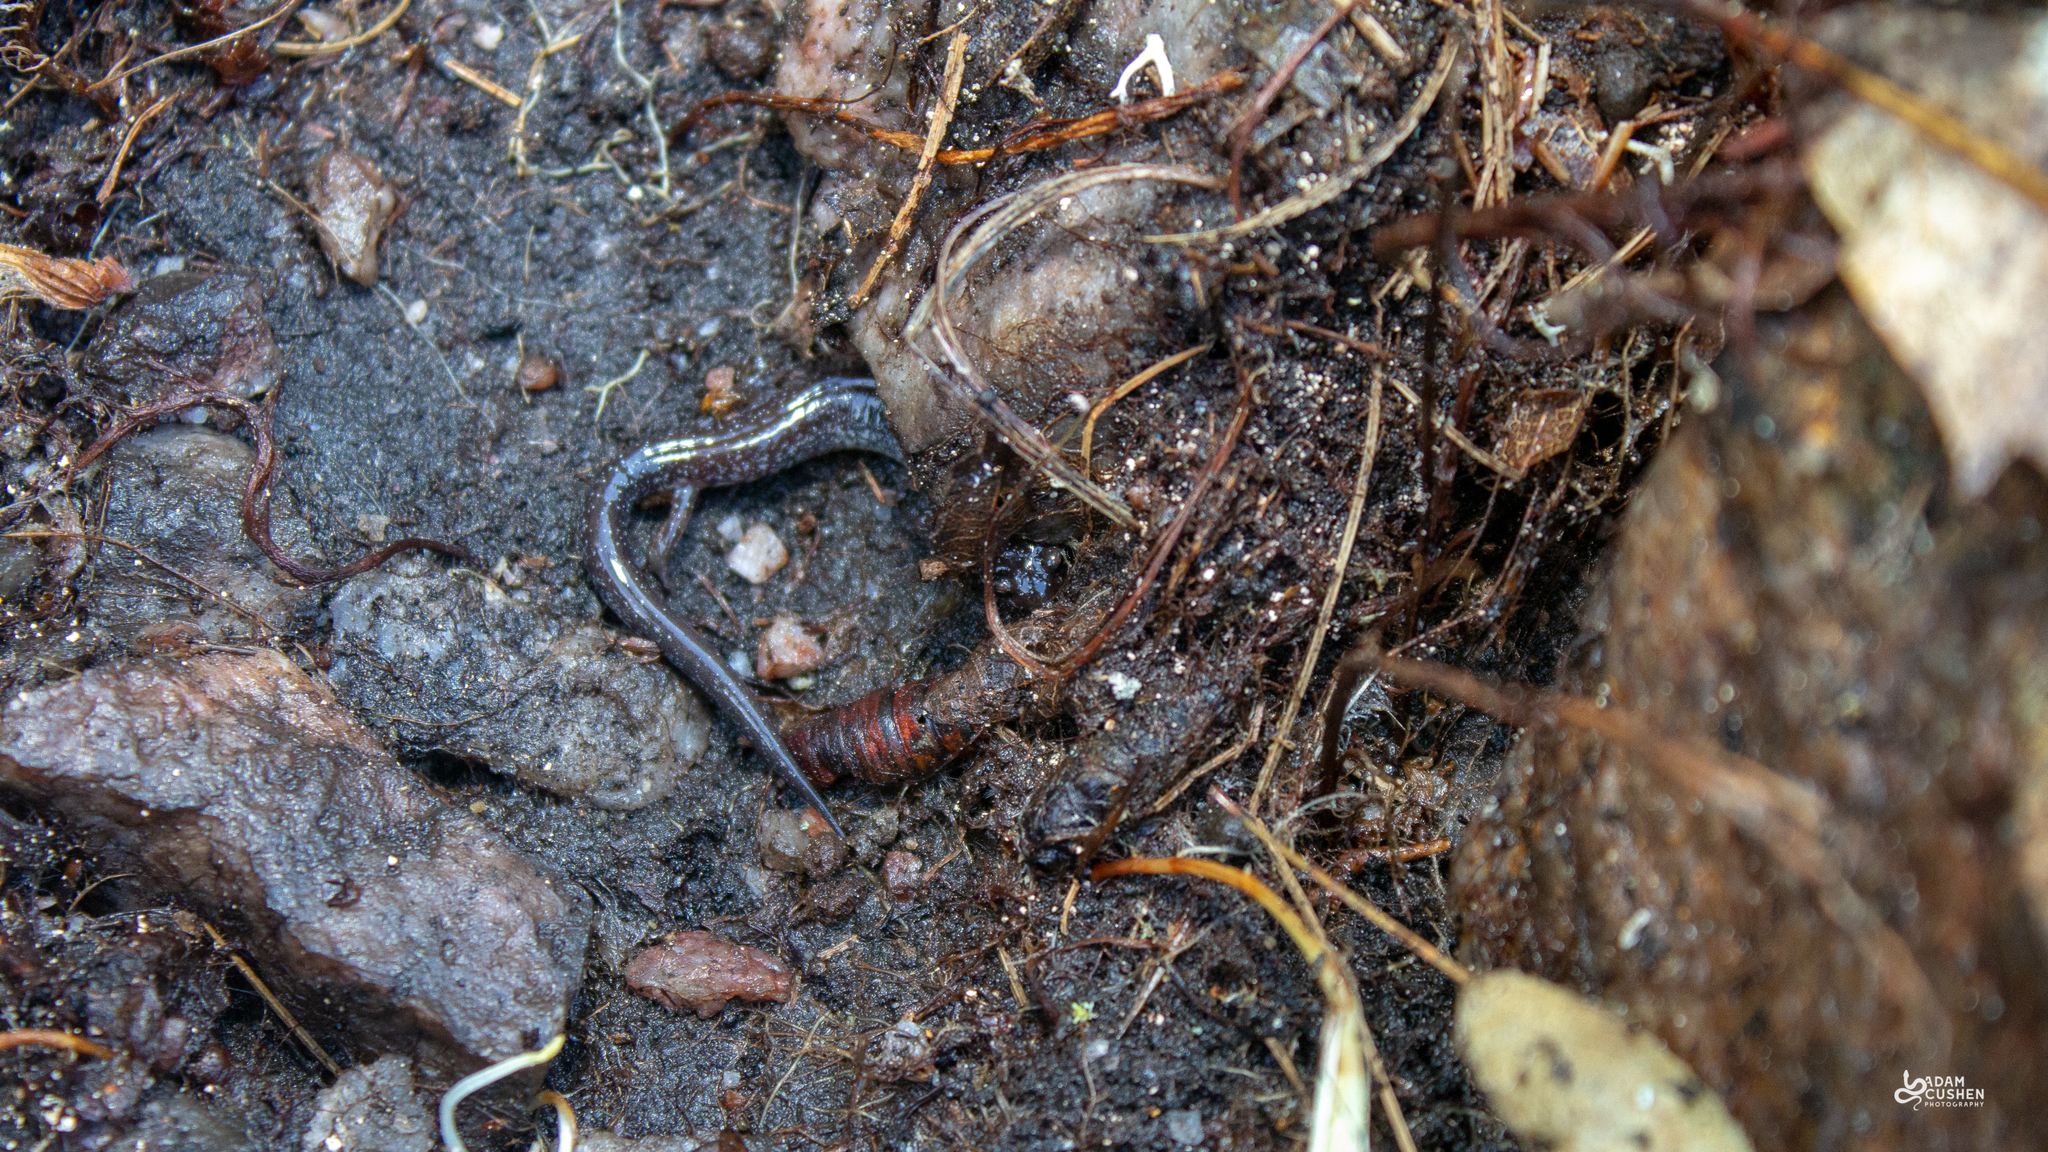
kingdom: Animalia
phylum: Chordata
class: Amphibia
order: Caudata
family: Plethodontidae
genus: Plethodon
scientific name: Plethodon cinereus
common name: Redback salamander
